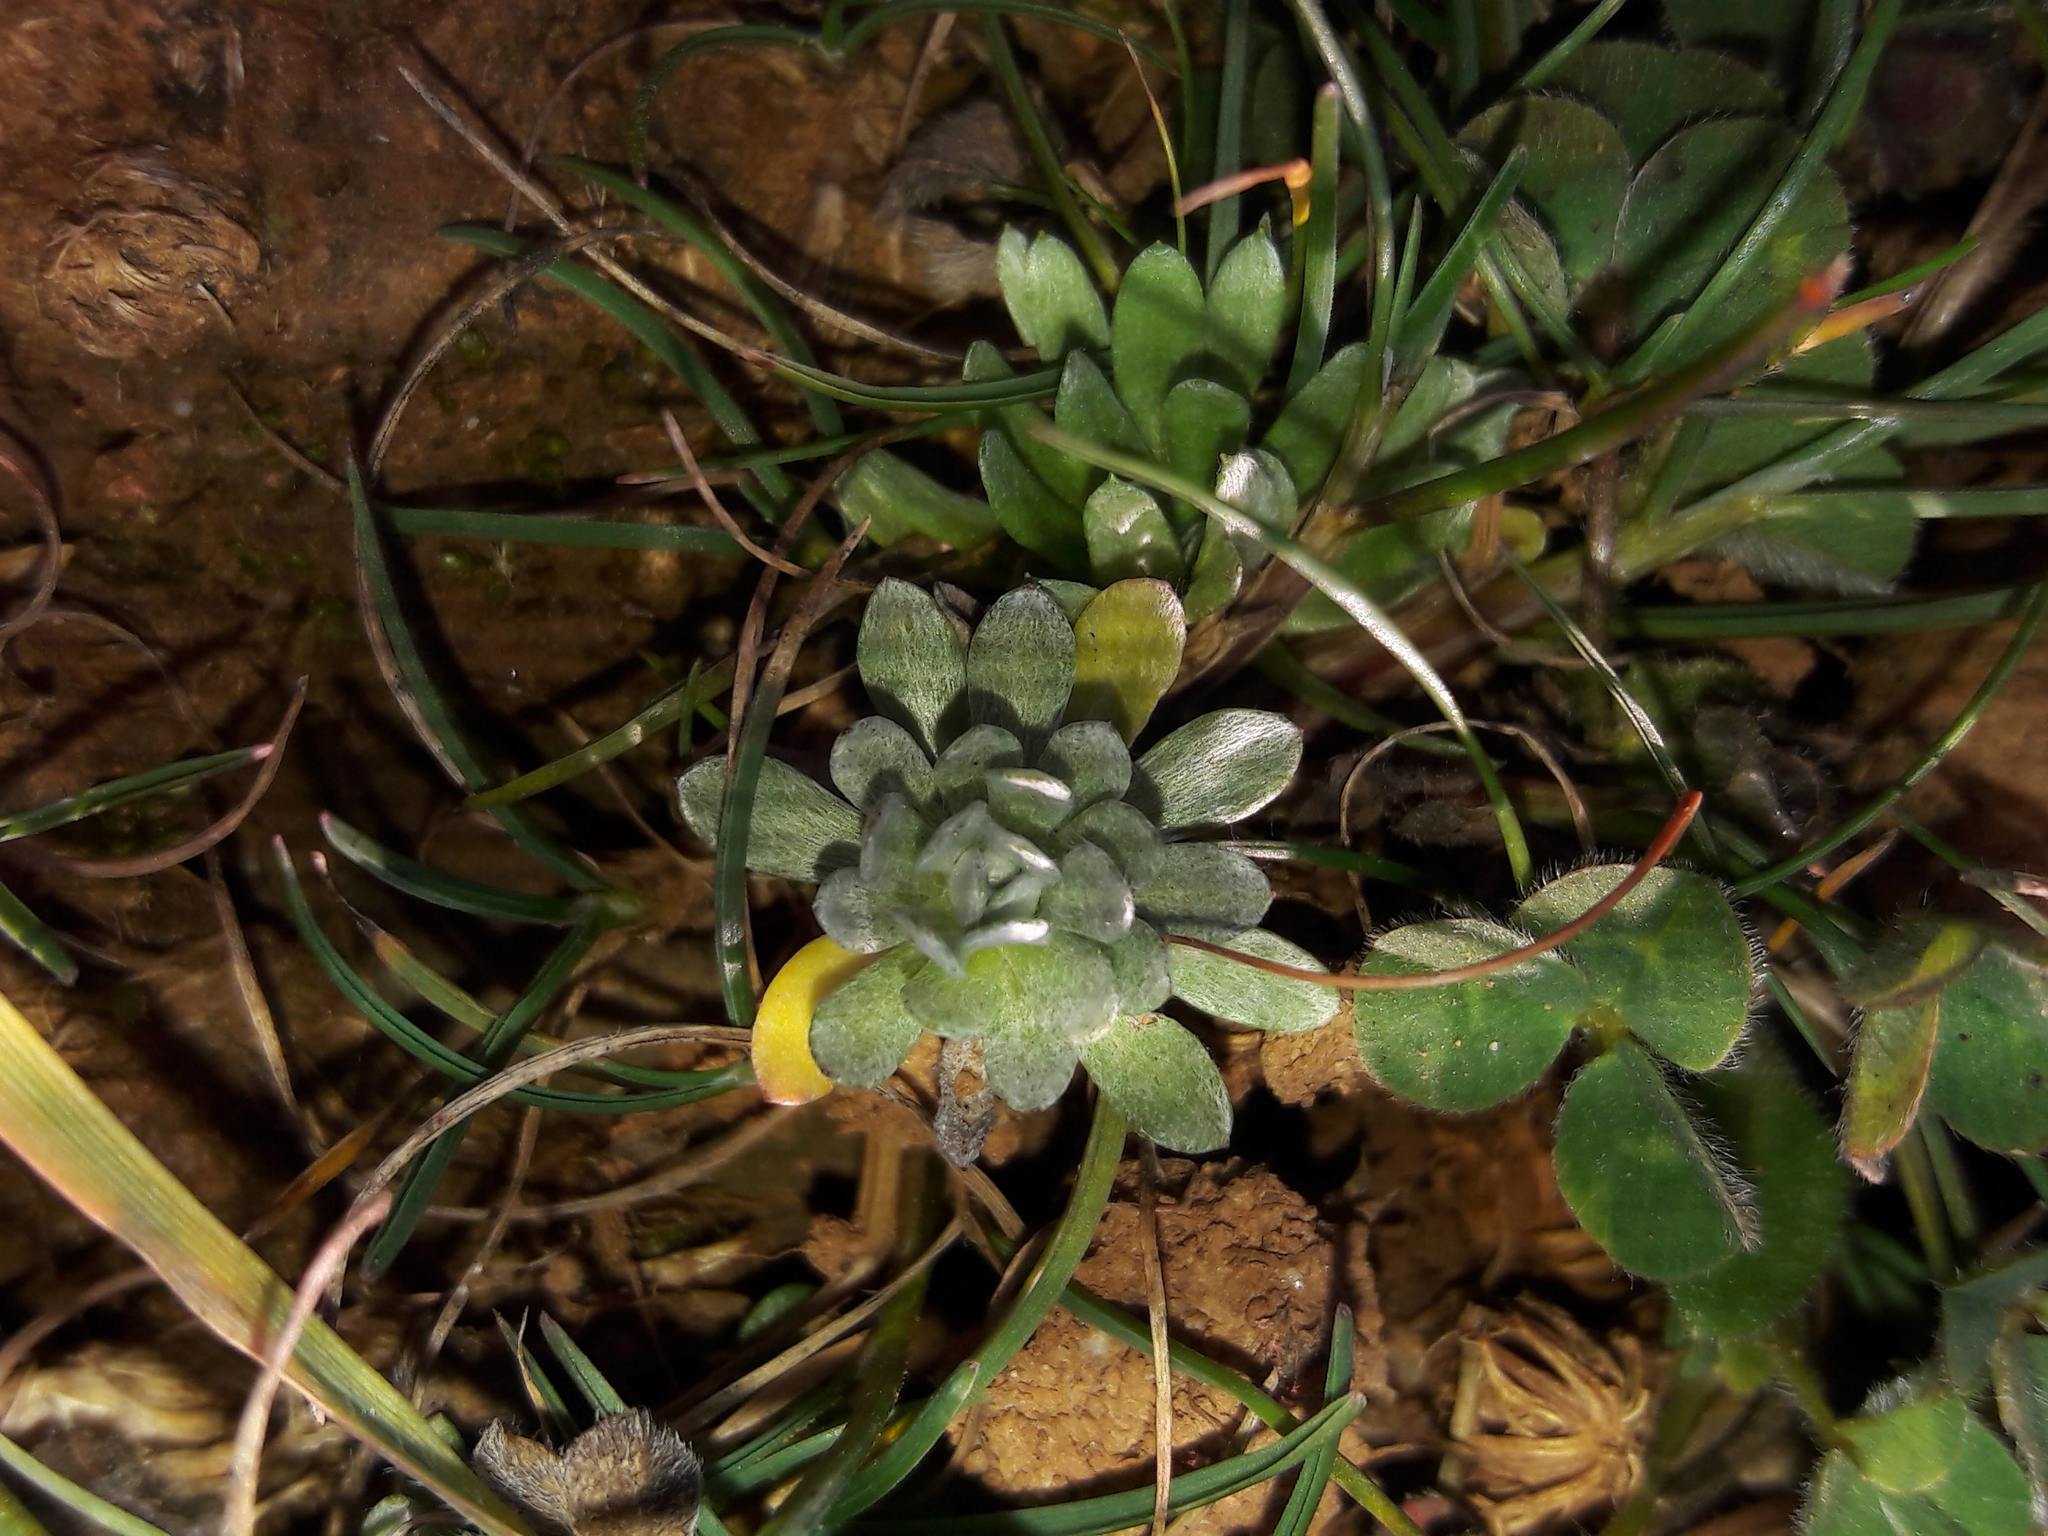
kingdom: Plantae
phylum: Tracheophyta
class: Magnoliopsida
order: Asterales
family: Asteraceae
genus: Filago
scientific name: Filago pygmaea
